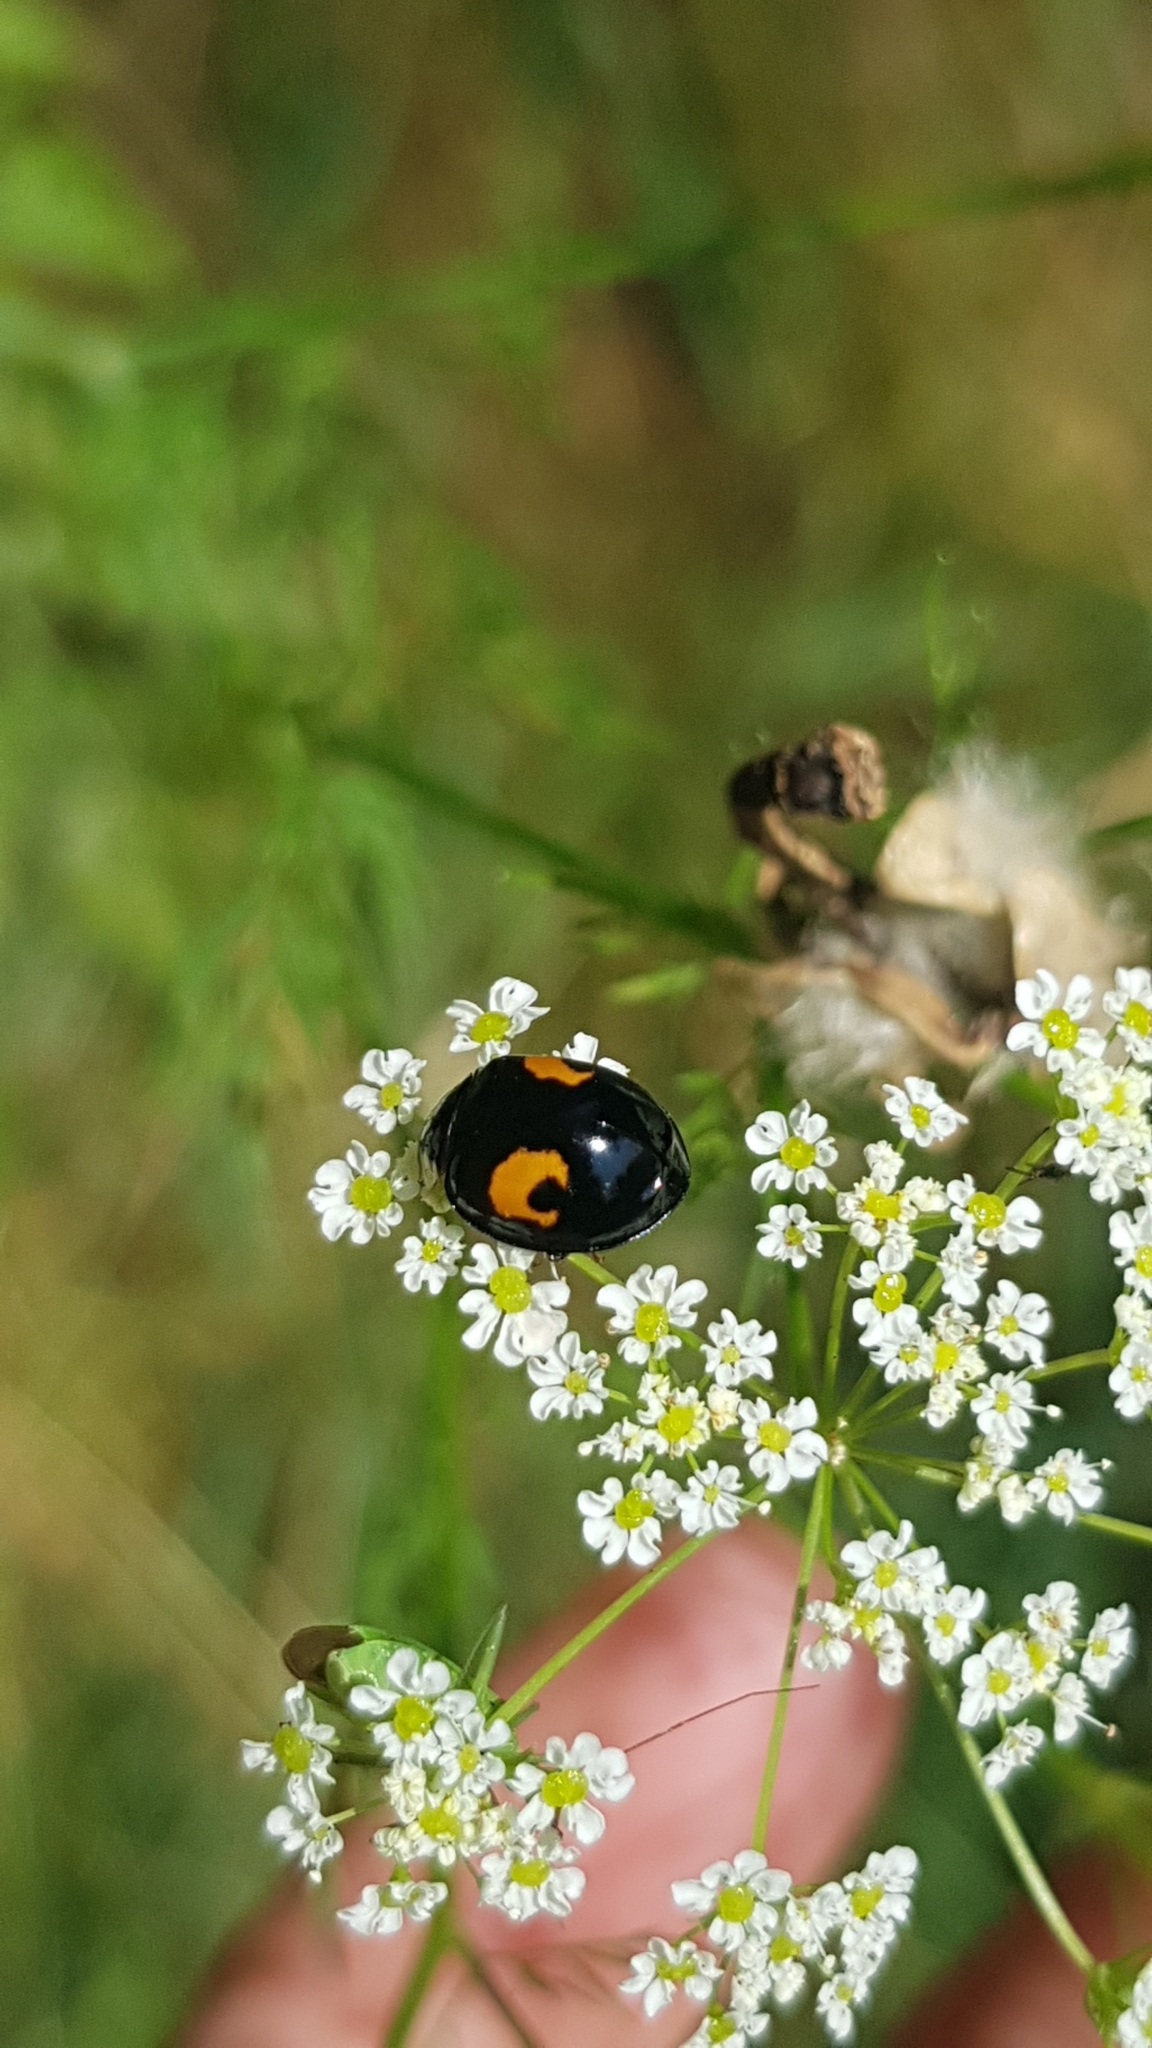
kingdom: Animalia
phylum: Arthropoda
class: Insecta
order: Coleoptera
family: Coccinellidae
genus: Harmonia
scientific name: Harmonia axyridis
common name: Harlequin ladybird
